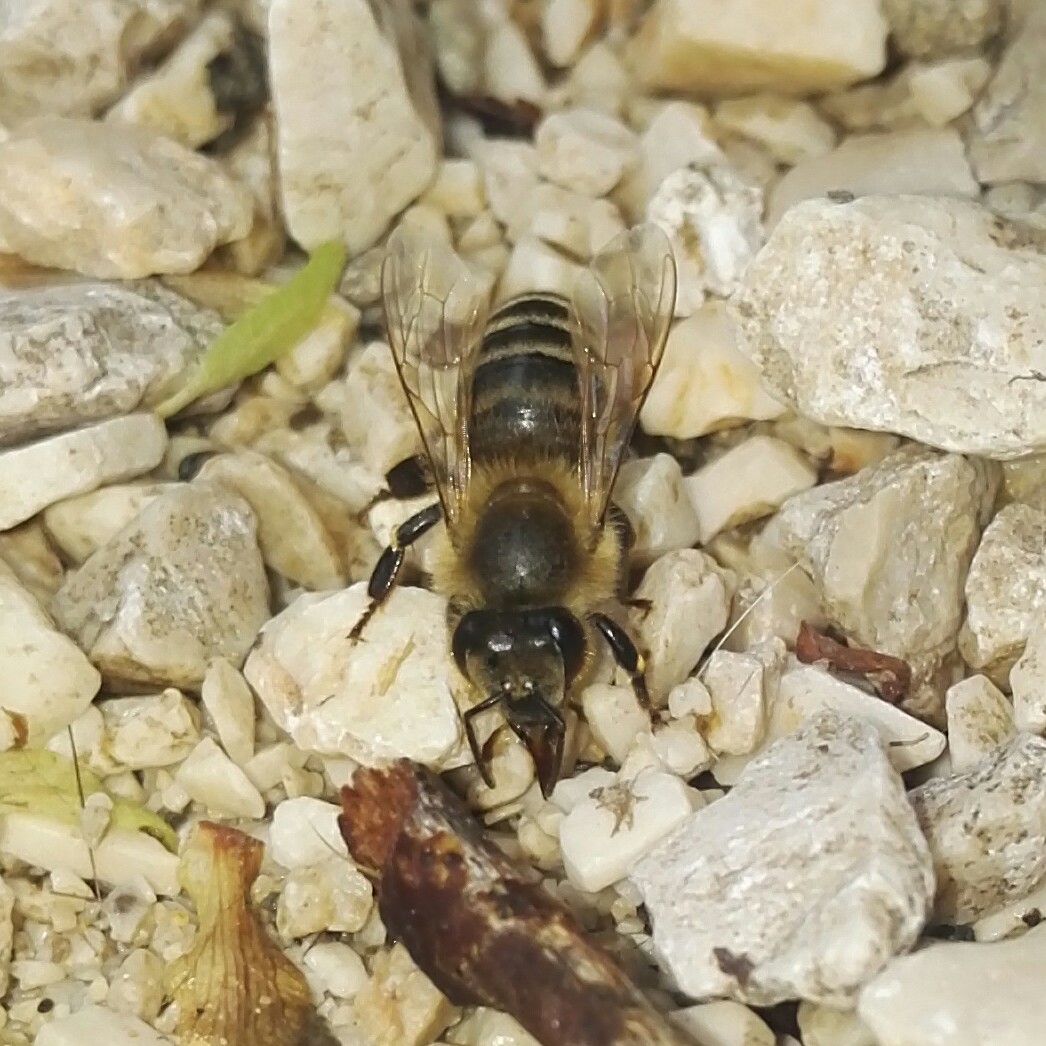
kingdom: Animalia
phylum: Arthropoda
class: Insecta
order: Hymenoptera
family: Apidae
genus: Apis
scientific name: Apis mellifera
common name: Honey bee
